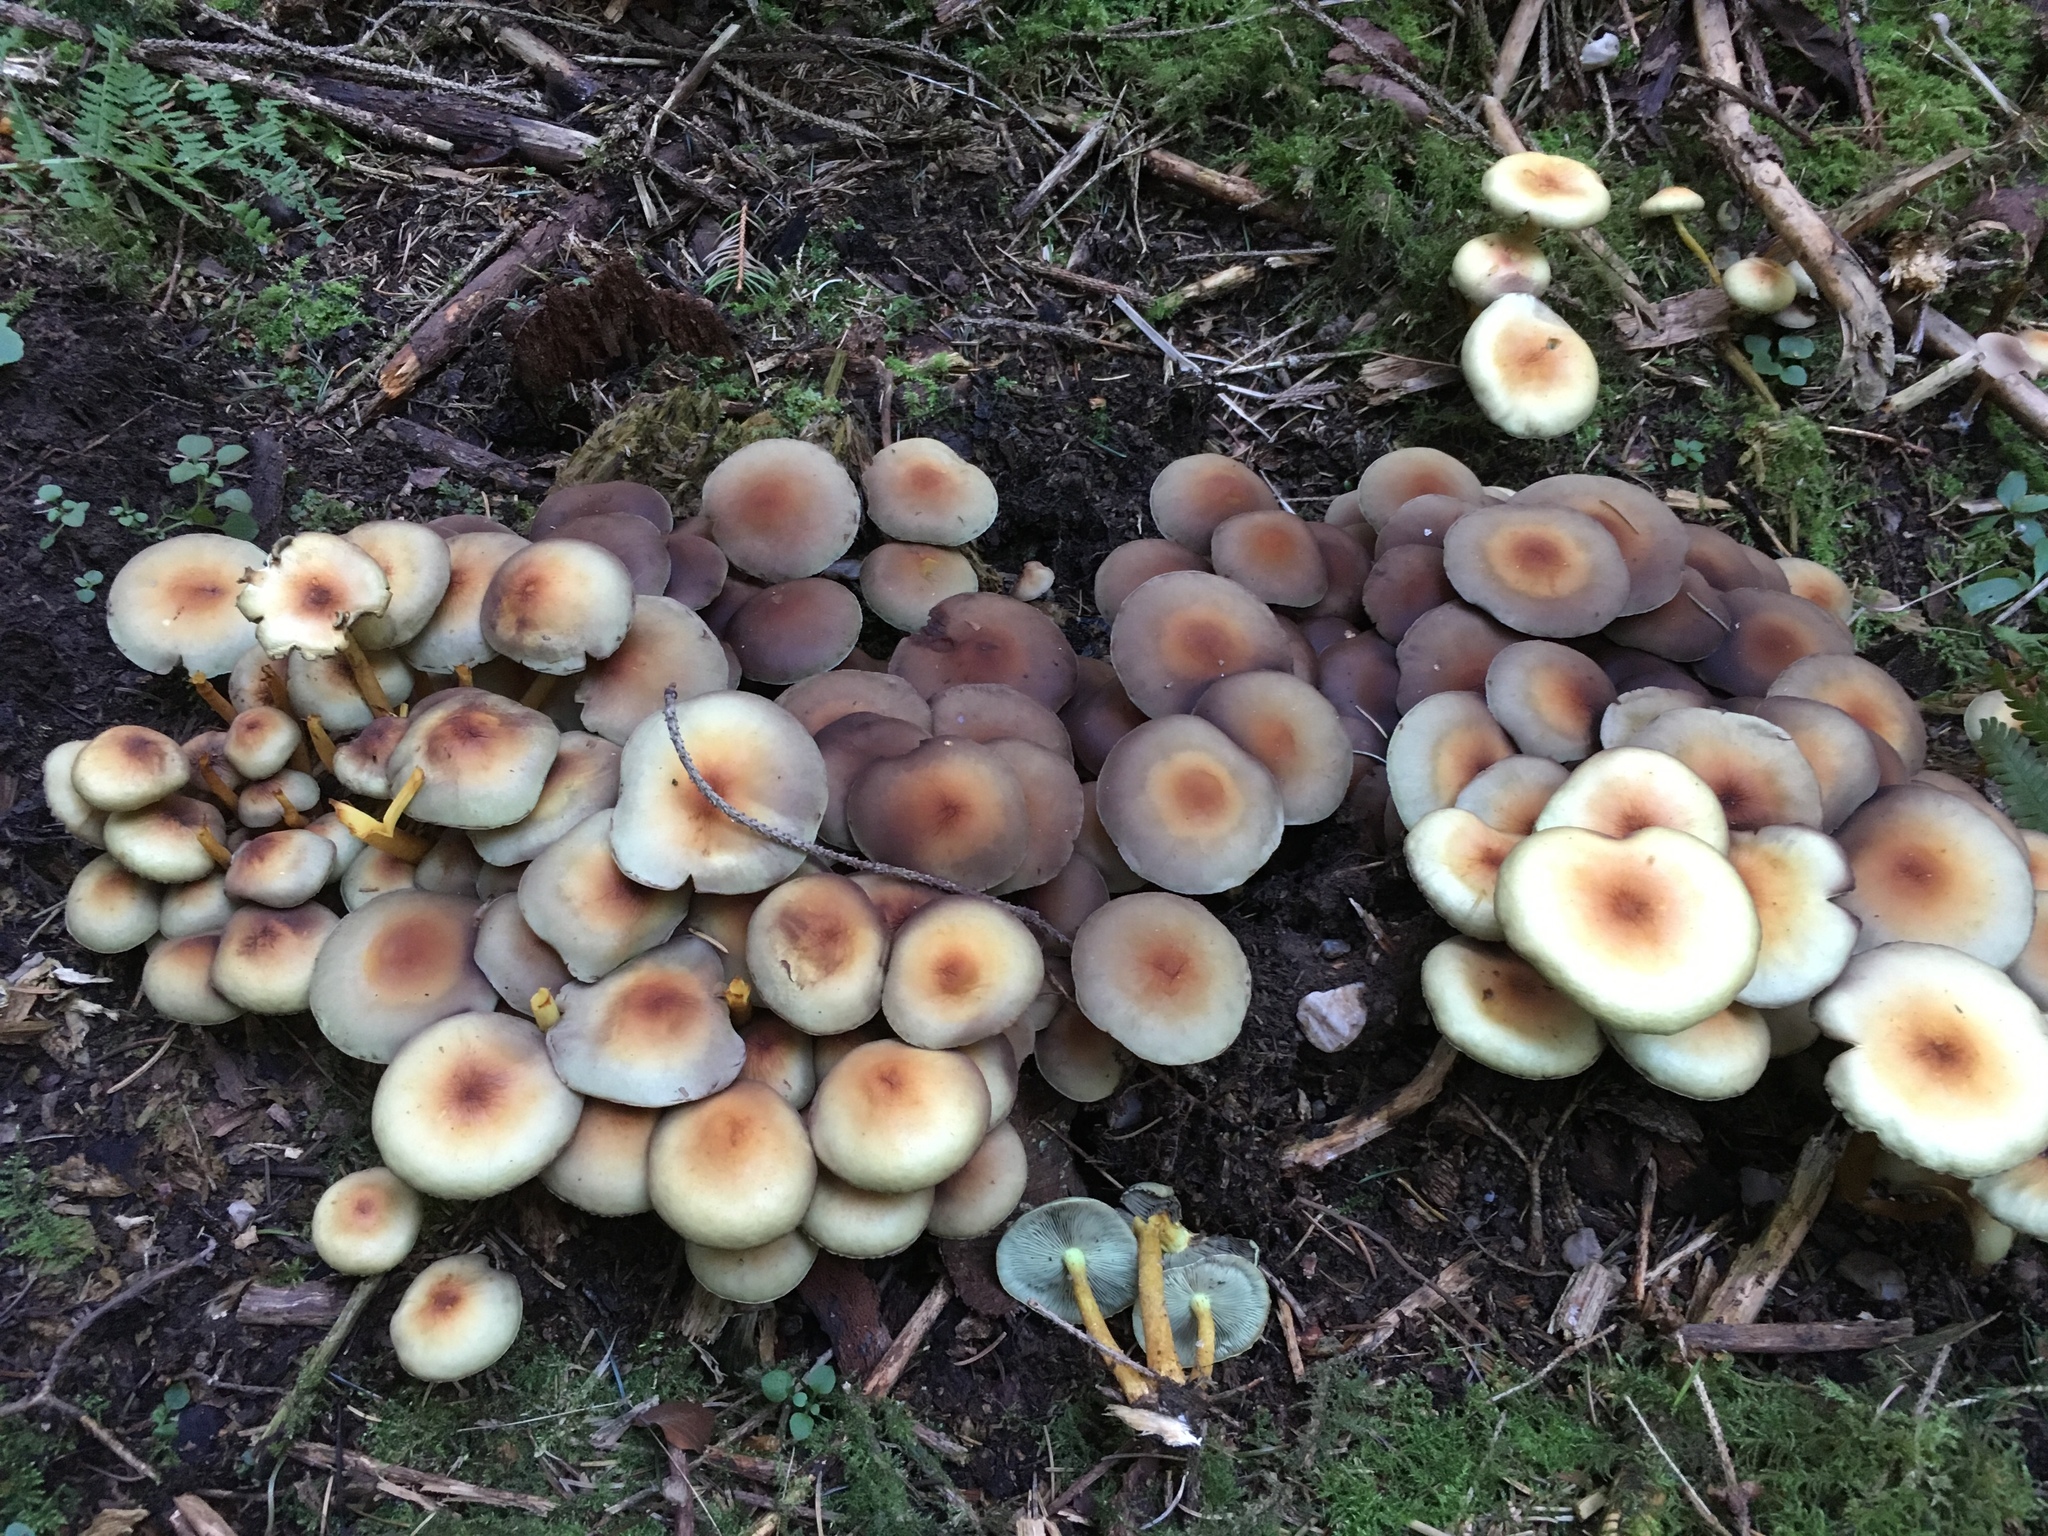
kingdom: Fungi
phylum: Basidiomycota
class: Agaricomycetes
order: Agaricales
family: Strophariaceae
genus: Hypholoma
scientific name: Hypholoma fasciculare
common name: Sulphur tuft
